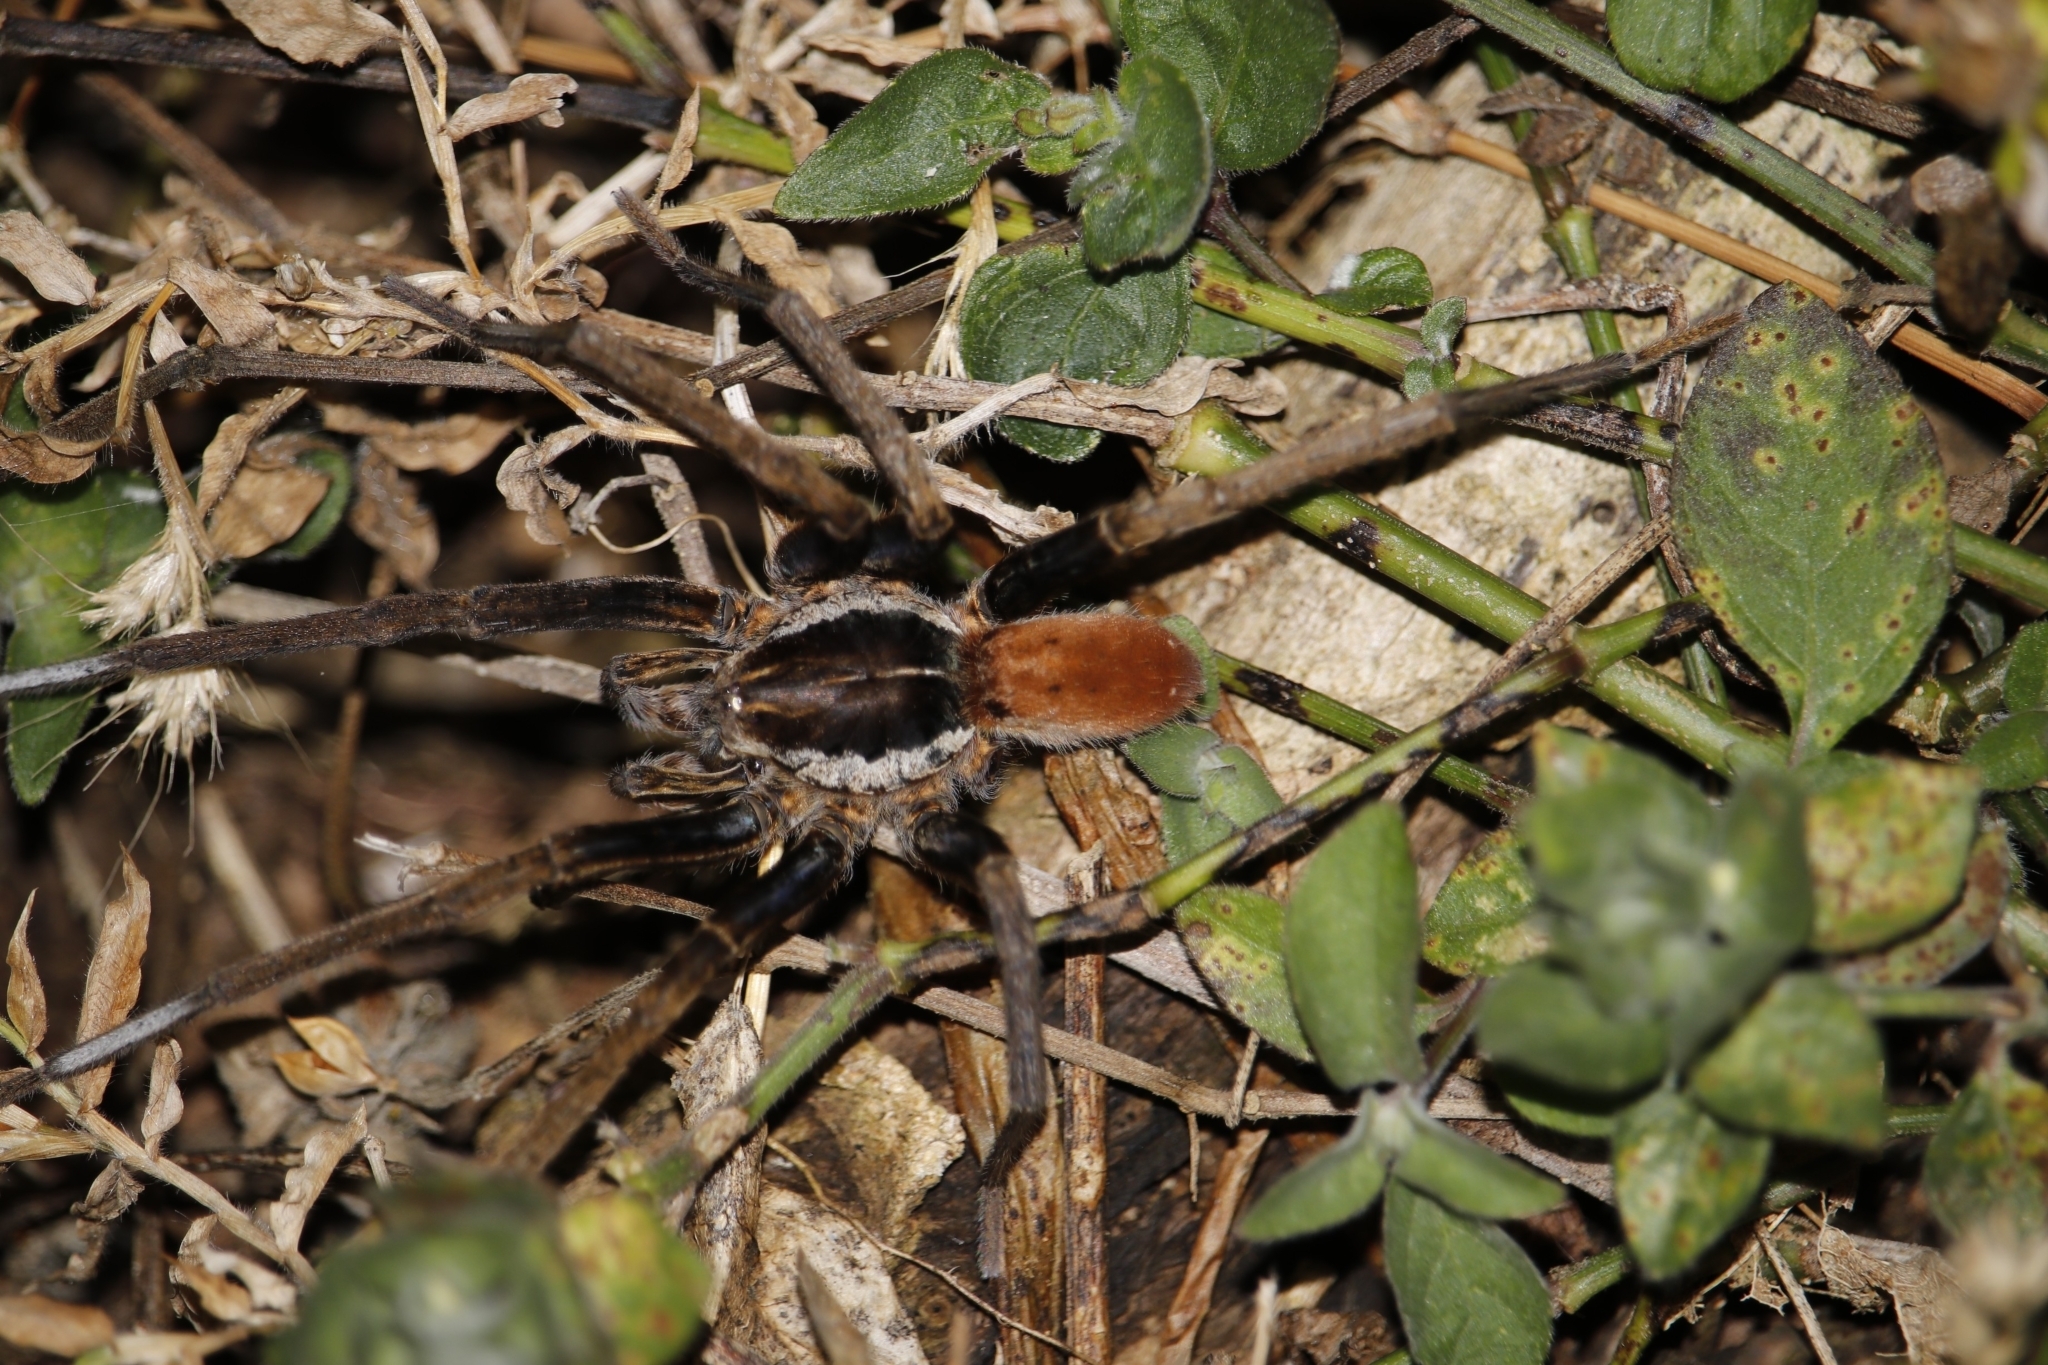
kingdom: Animalia
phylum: Arthropoda
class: Arachnida
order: Araneae
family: Ctenidae
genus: Ancylometes
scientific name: Ancylometes bogotensis
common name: Wandering spiders
